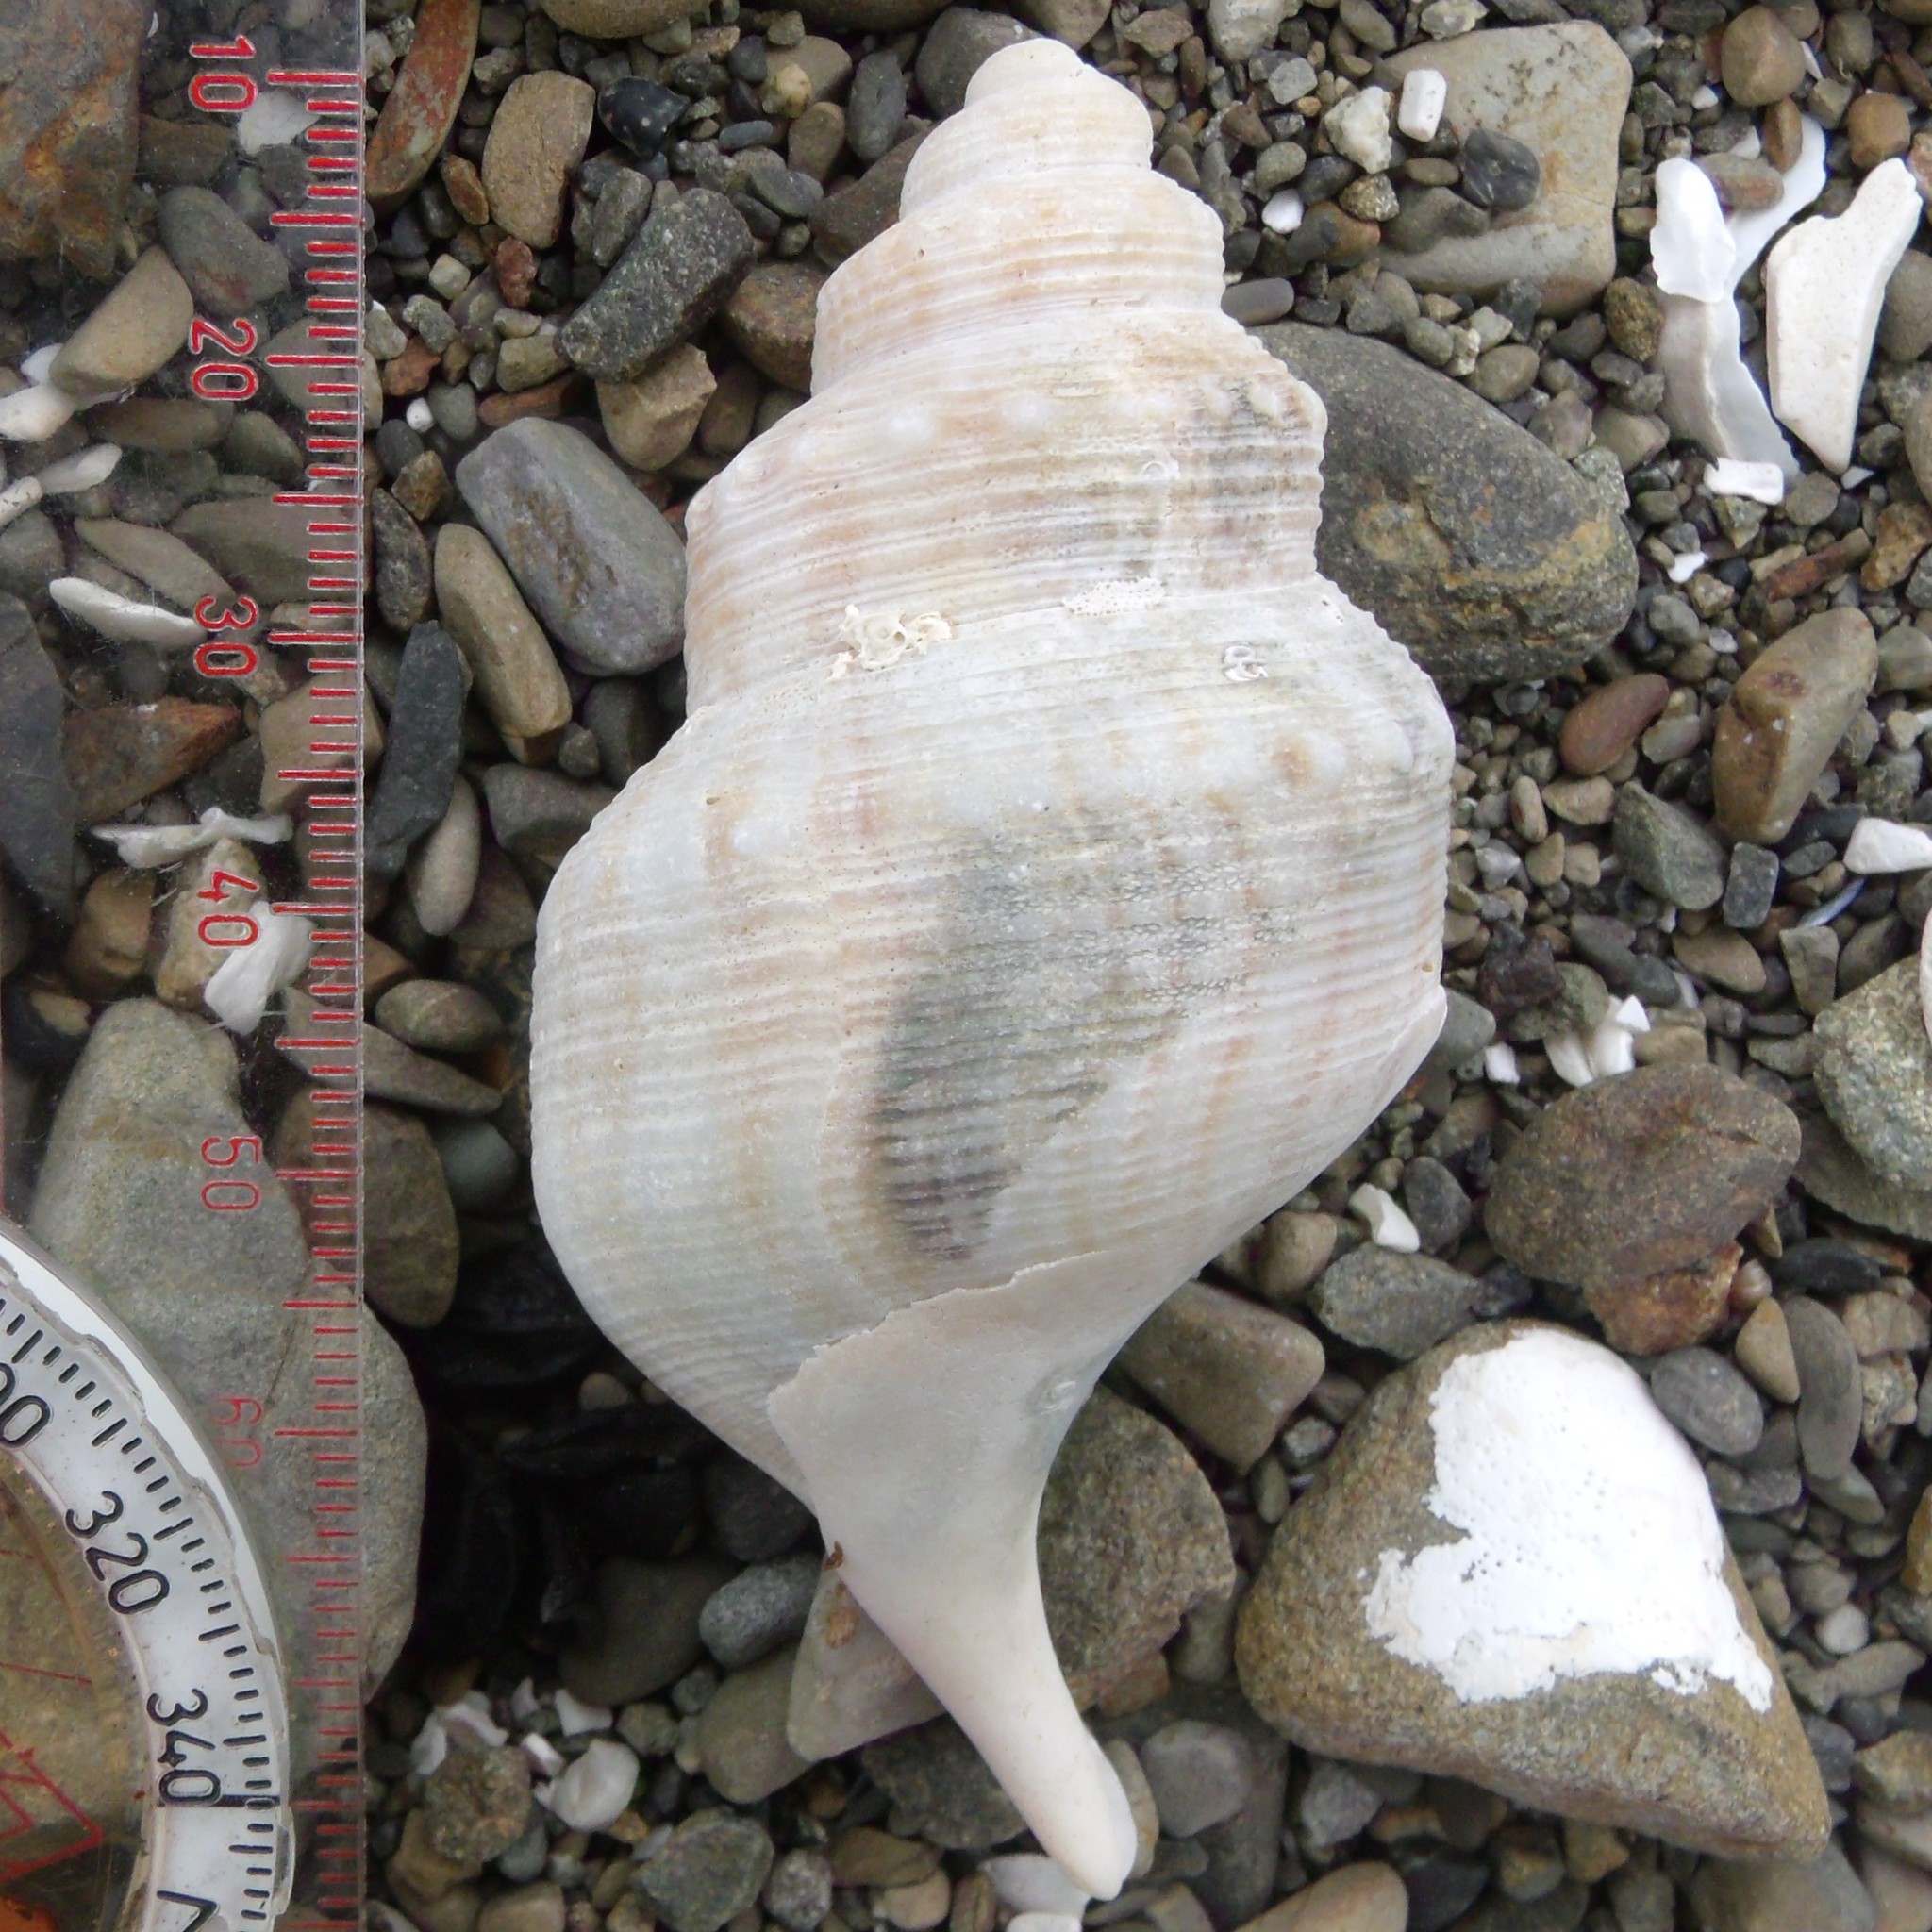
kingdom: Animalia
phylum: Mollusca
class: Gastropoda
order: Littorinimorpha
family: Struthiolariidae
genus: Struthiolaria
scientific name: Struthiolaria papulosa
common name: Large ostrich foot
